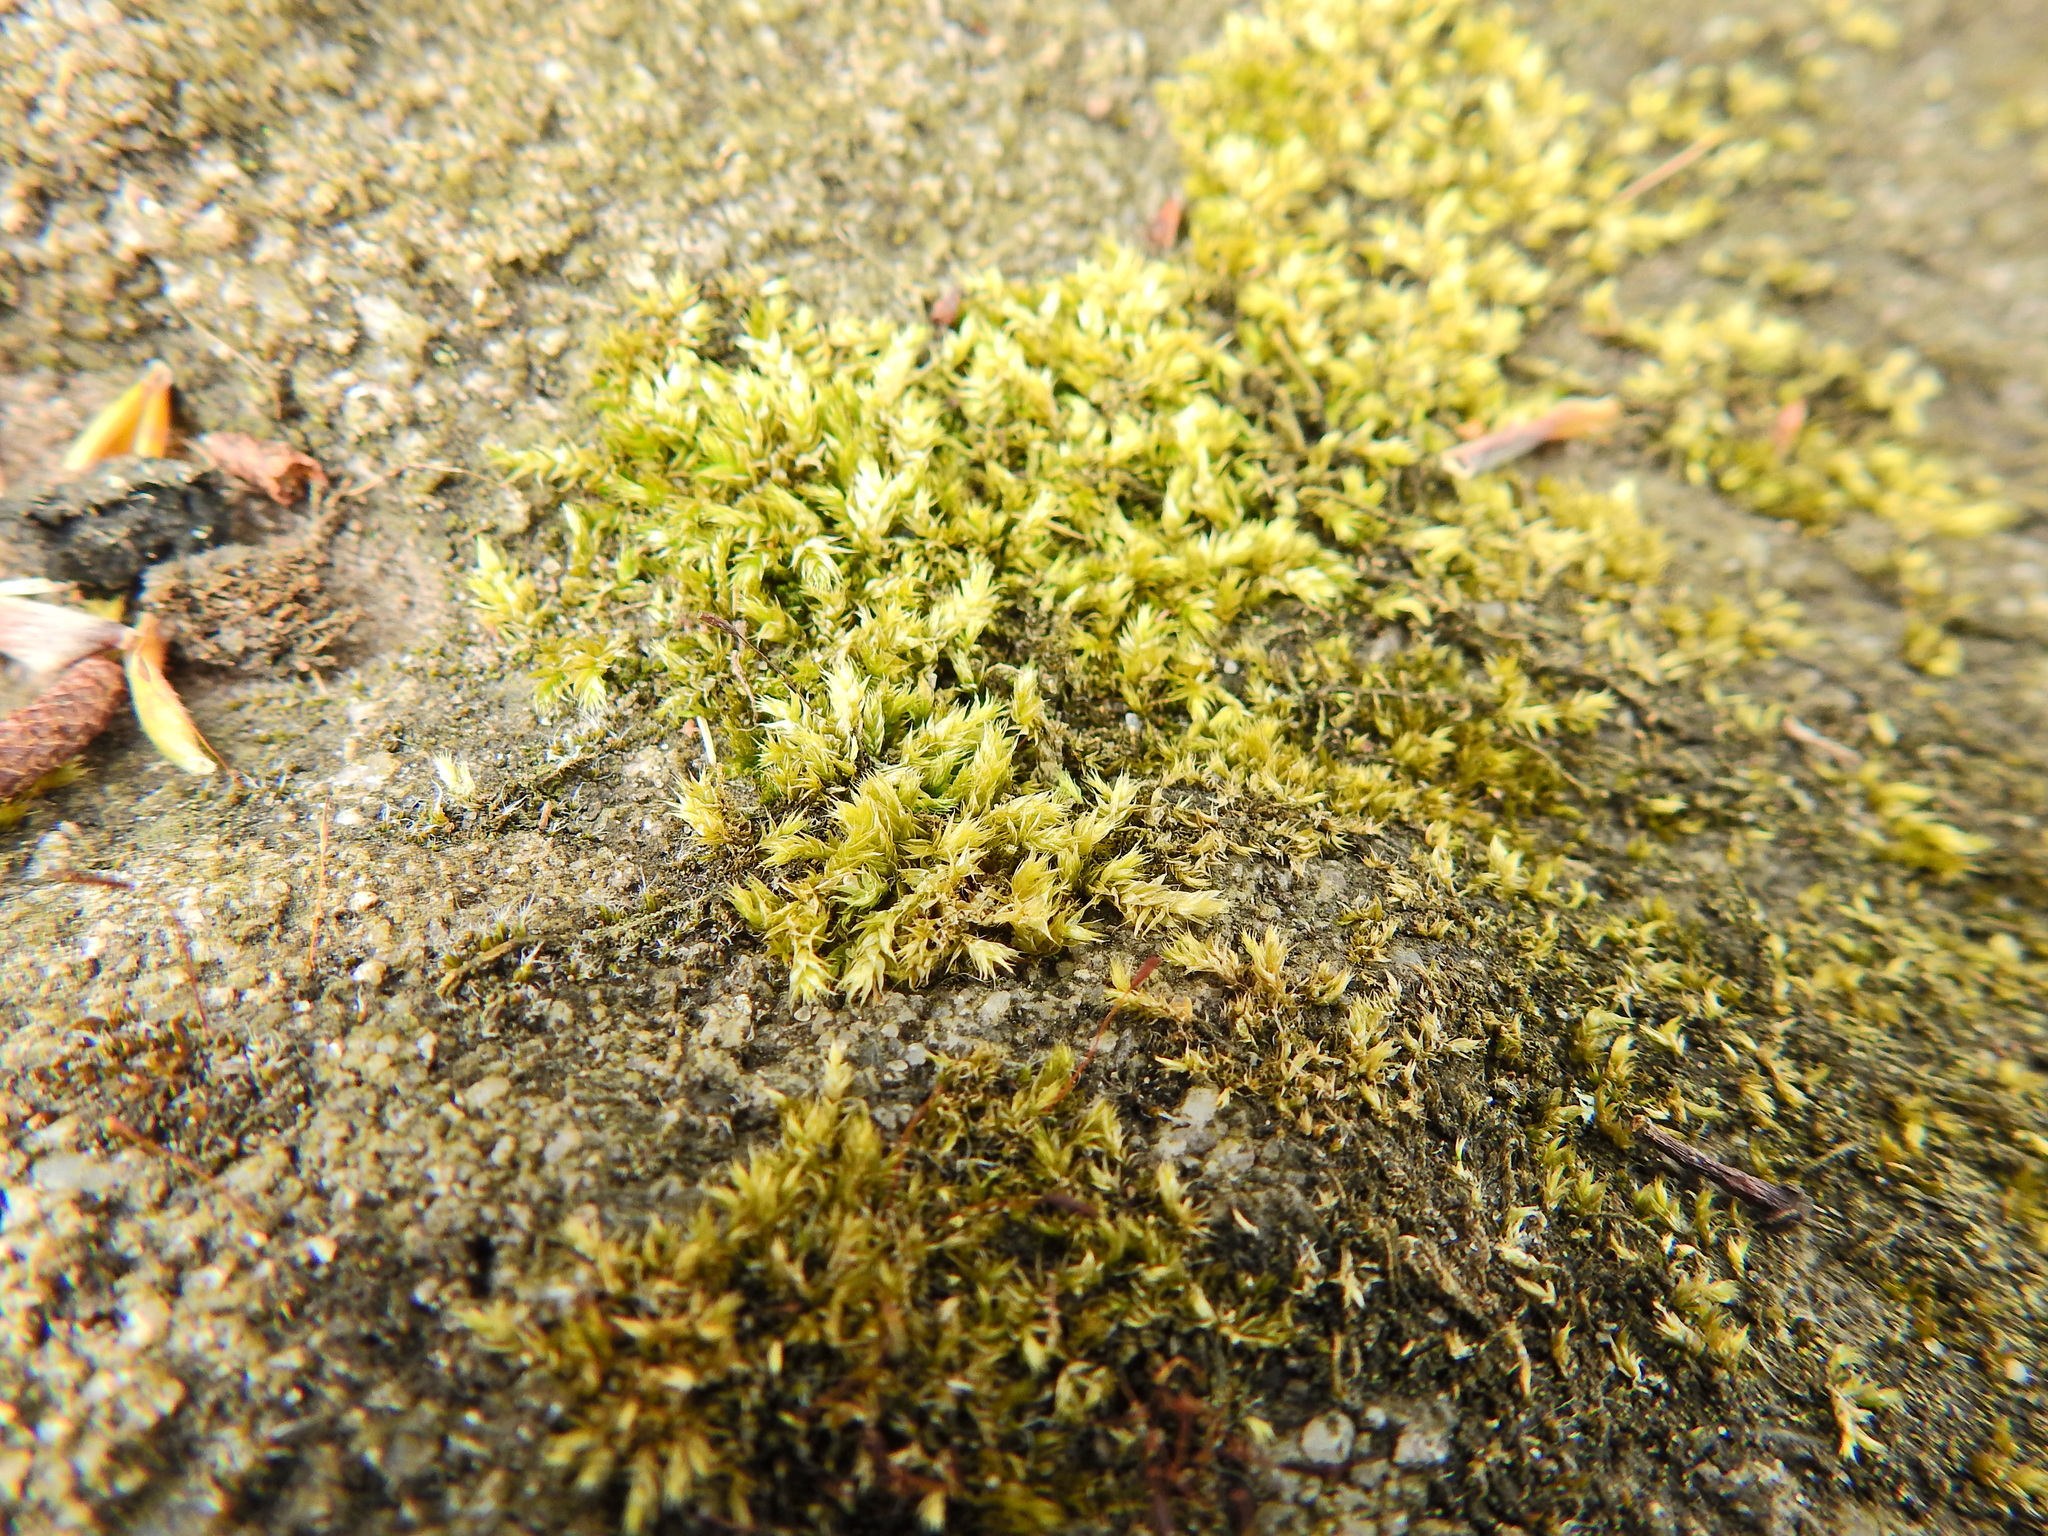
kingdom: Plantae
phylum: Bryophyta
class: Bryopsida
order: Hypnales
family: Brachytheciaceae
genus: Brachythecium
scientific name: Brachythecium rutabulum
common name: Rough-stalked feather-moss
